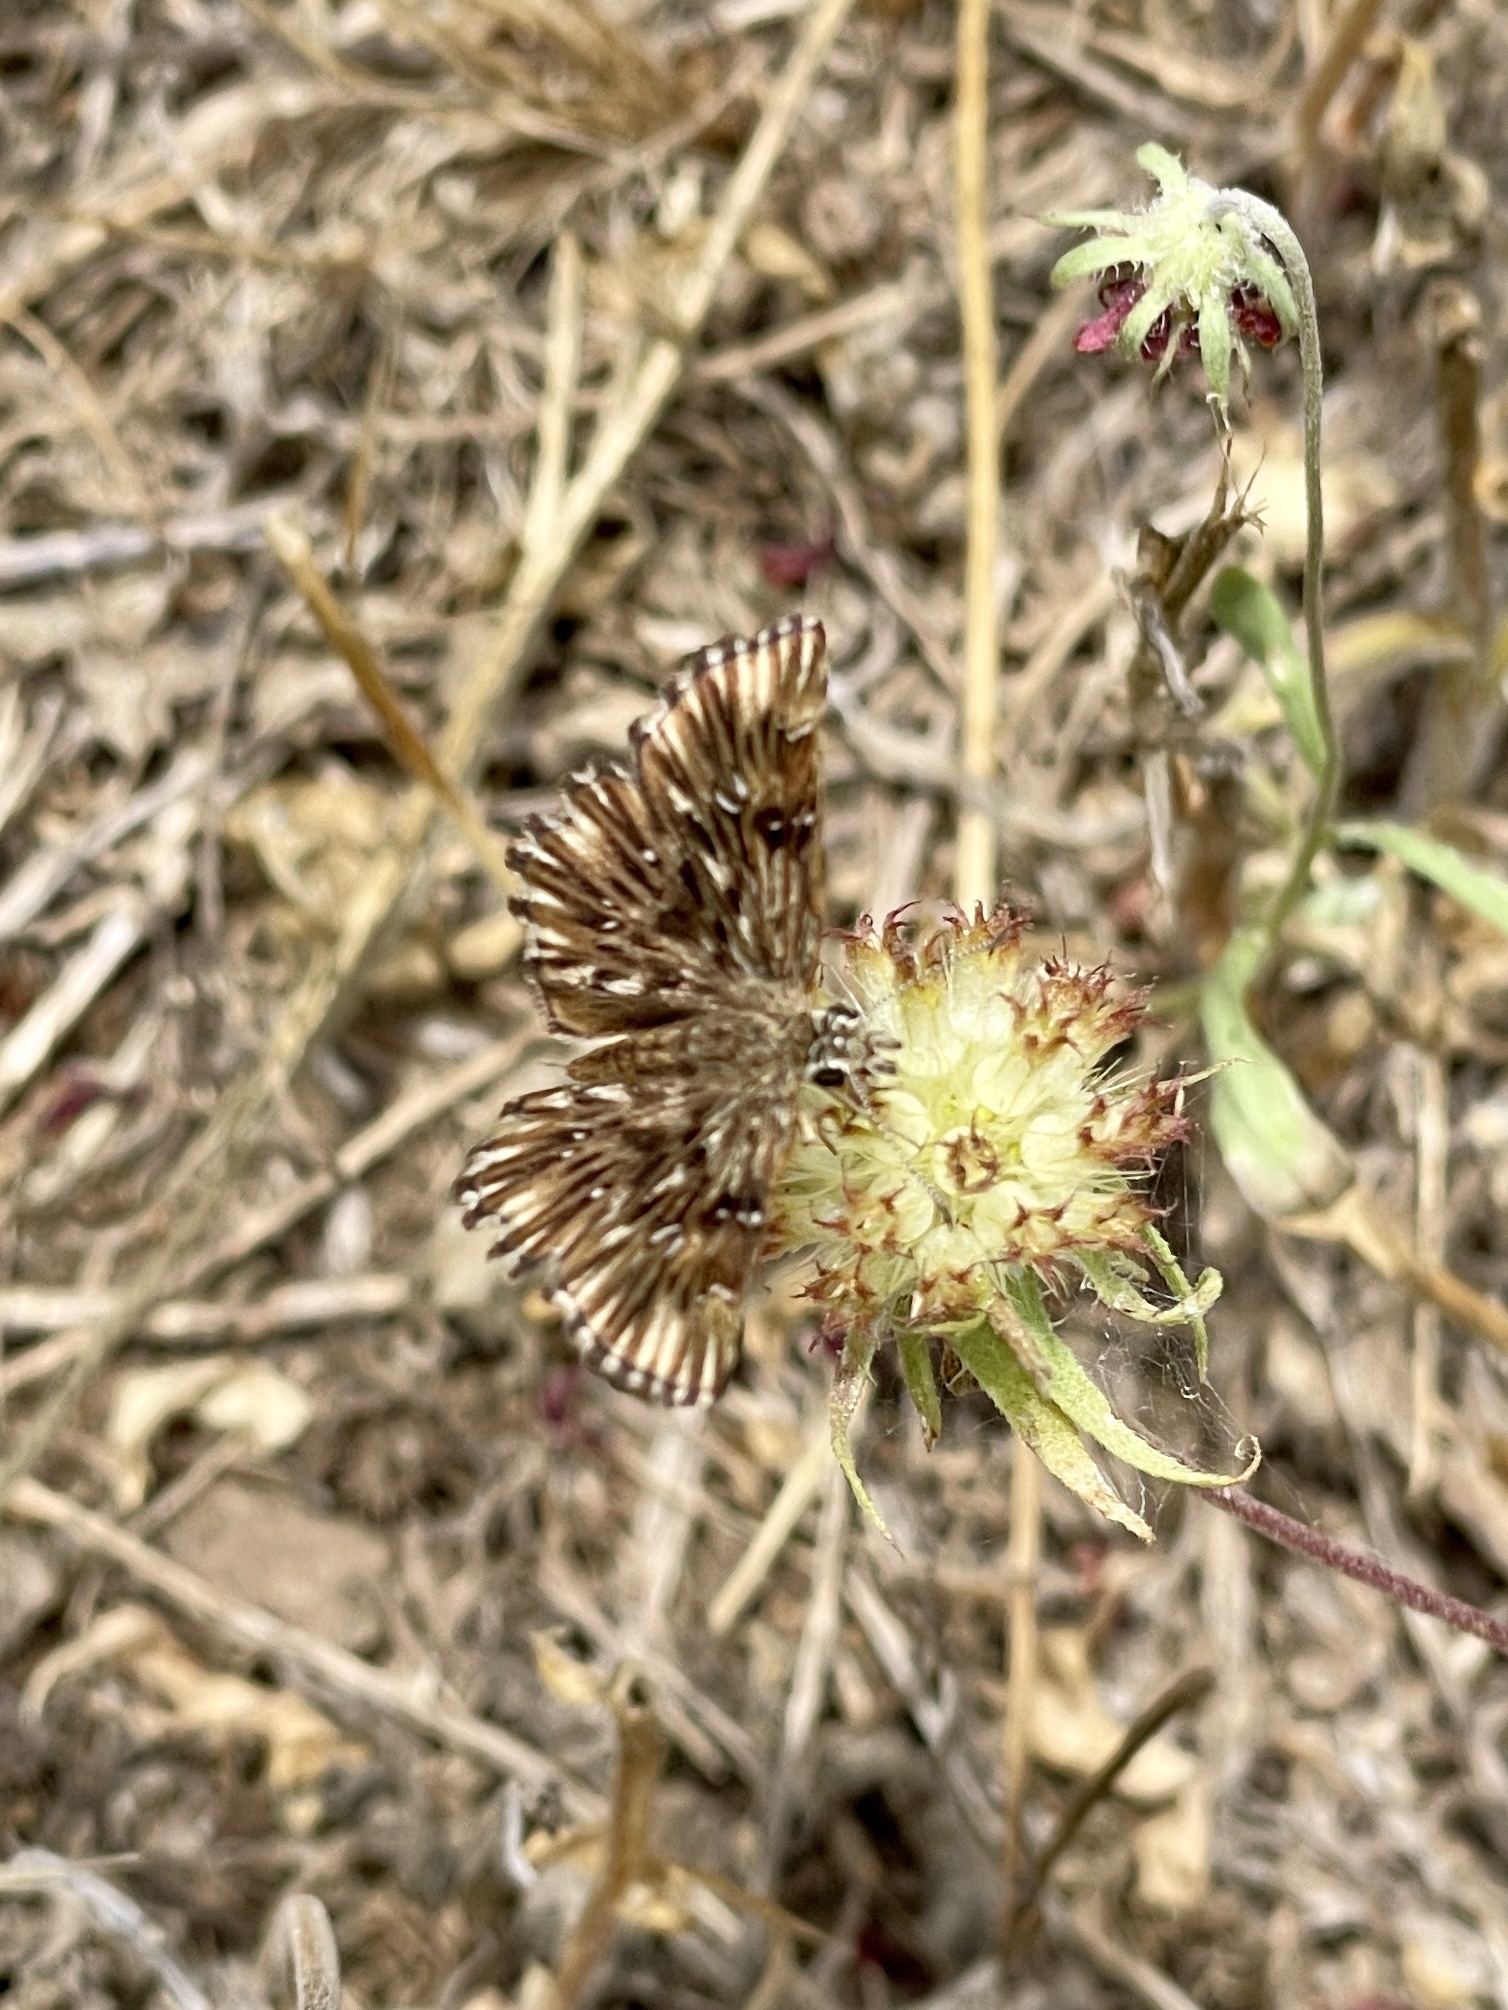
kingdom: Animalia
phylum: Arthropoda
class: Insecta
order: Lepidoptera
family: Hesperiidae
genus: Celotes
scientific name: Celotes nessus
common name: Common streaky-skipper
